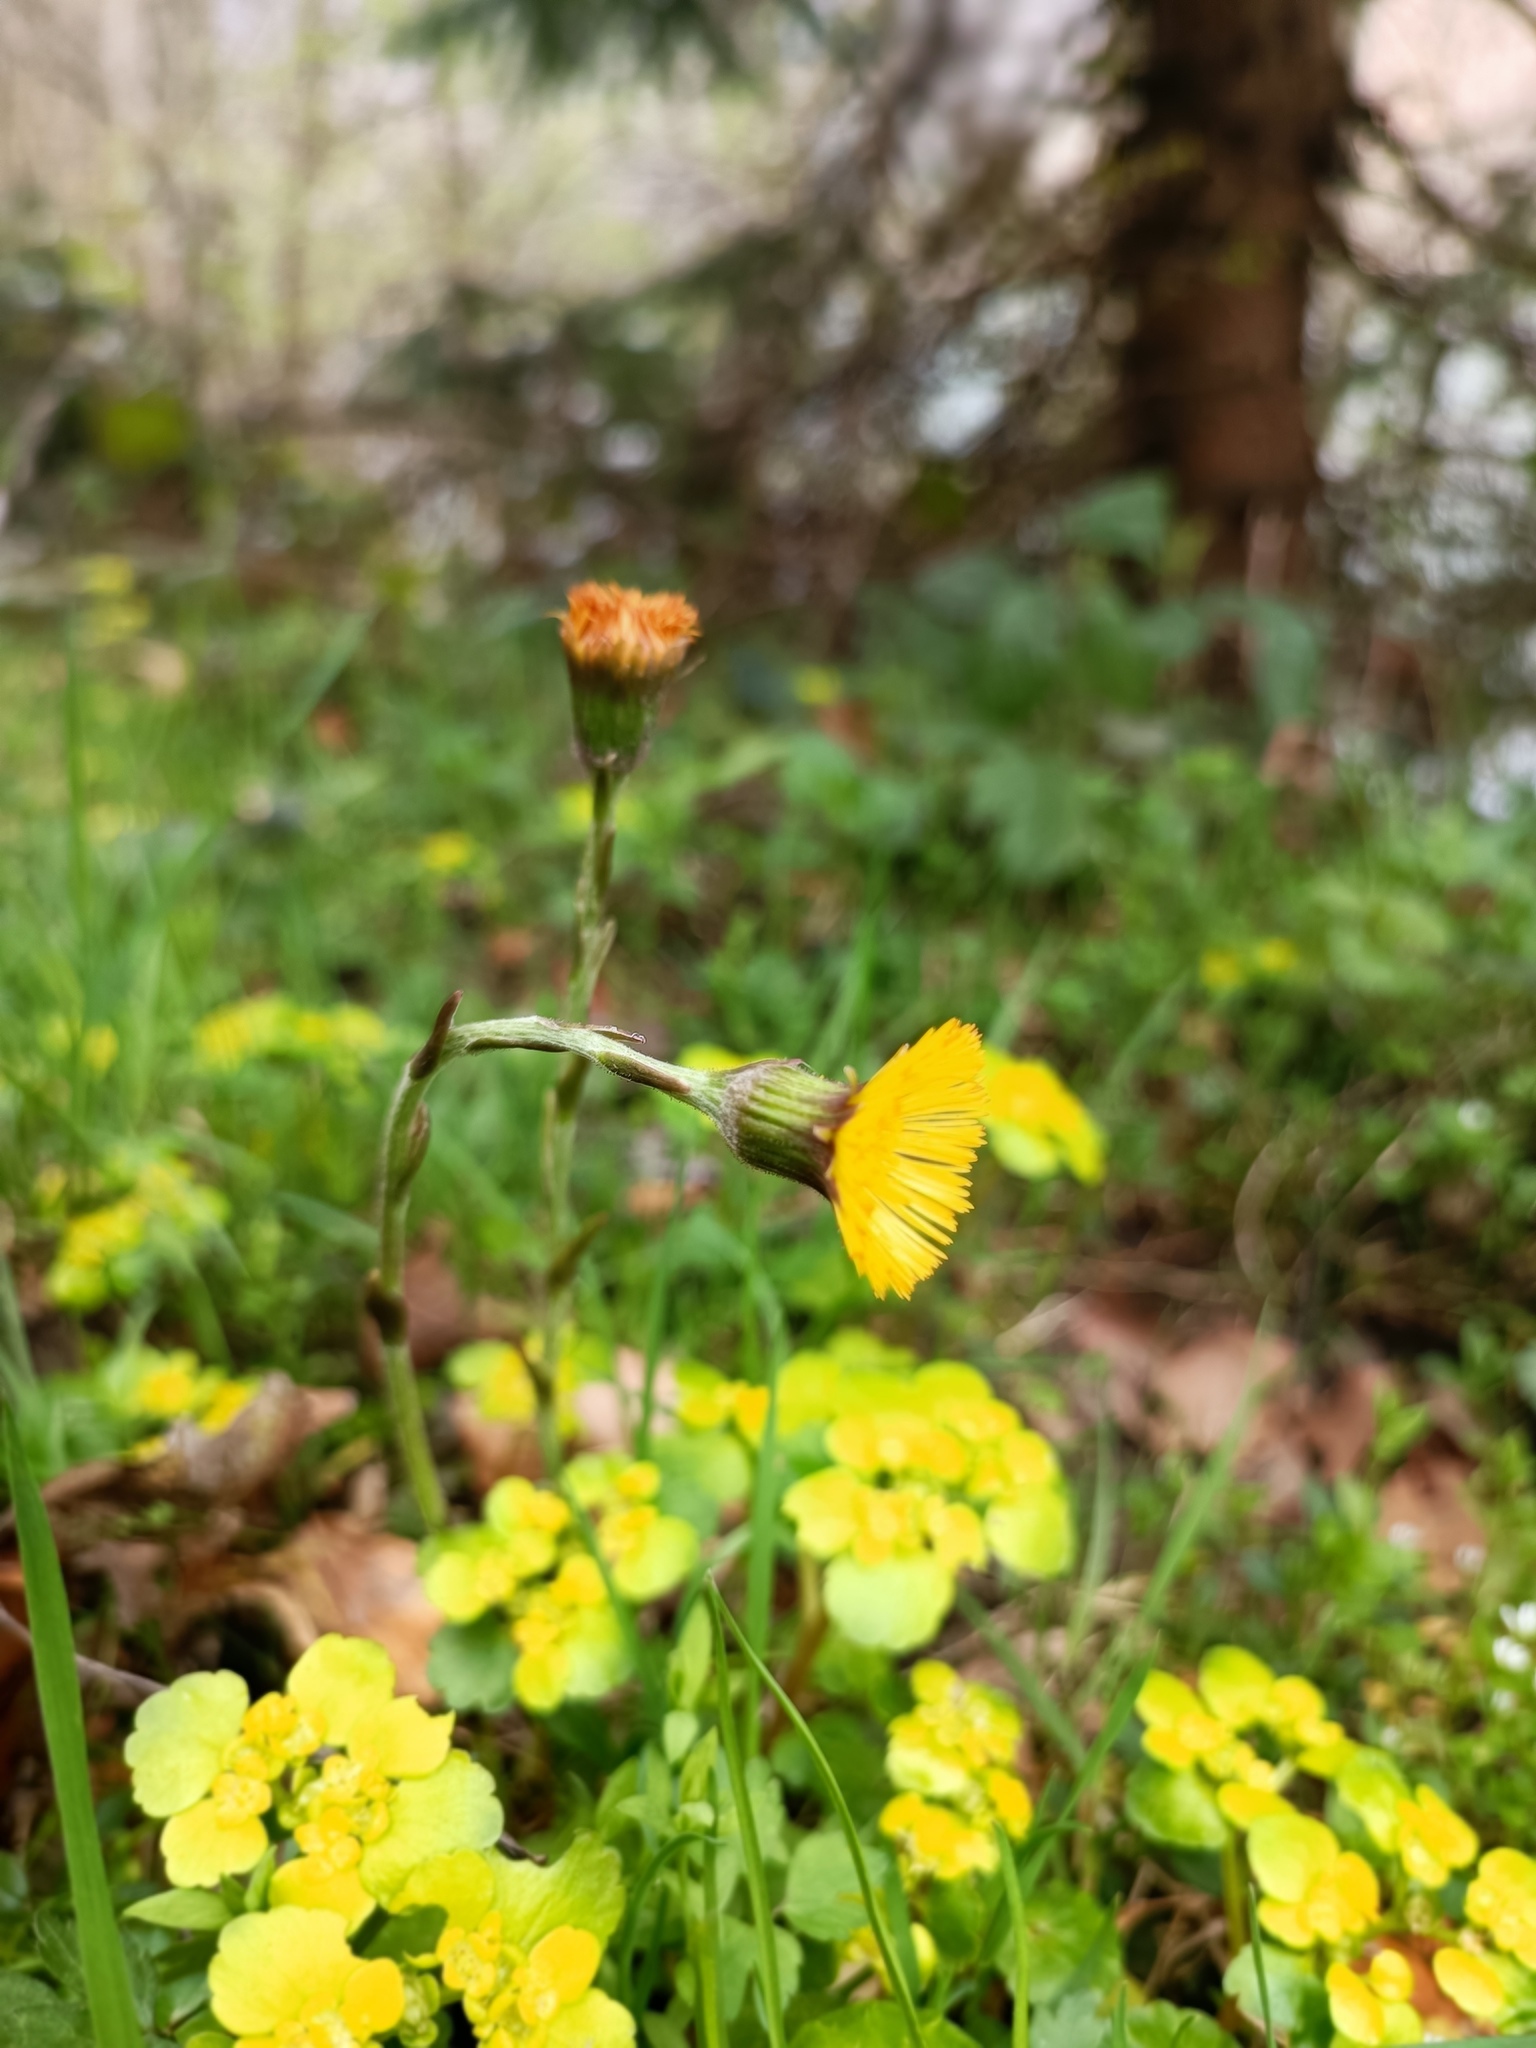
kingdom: Plantae
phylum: Tracheophyta
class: Magnoliopsida
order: Asterales
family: Asteraceae
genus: Tussilago
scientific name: Tussilago farfara
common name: Coltsfoot
